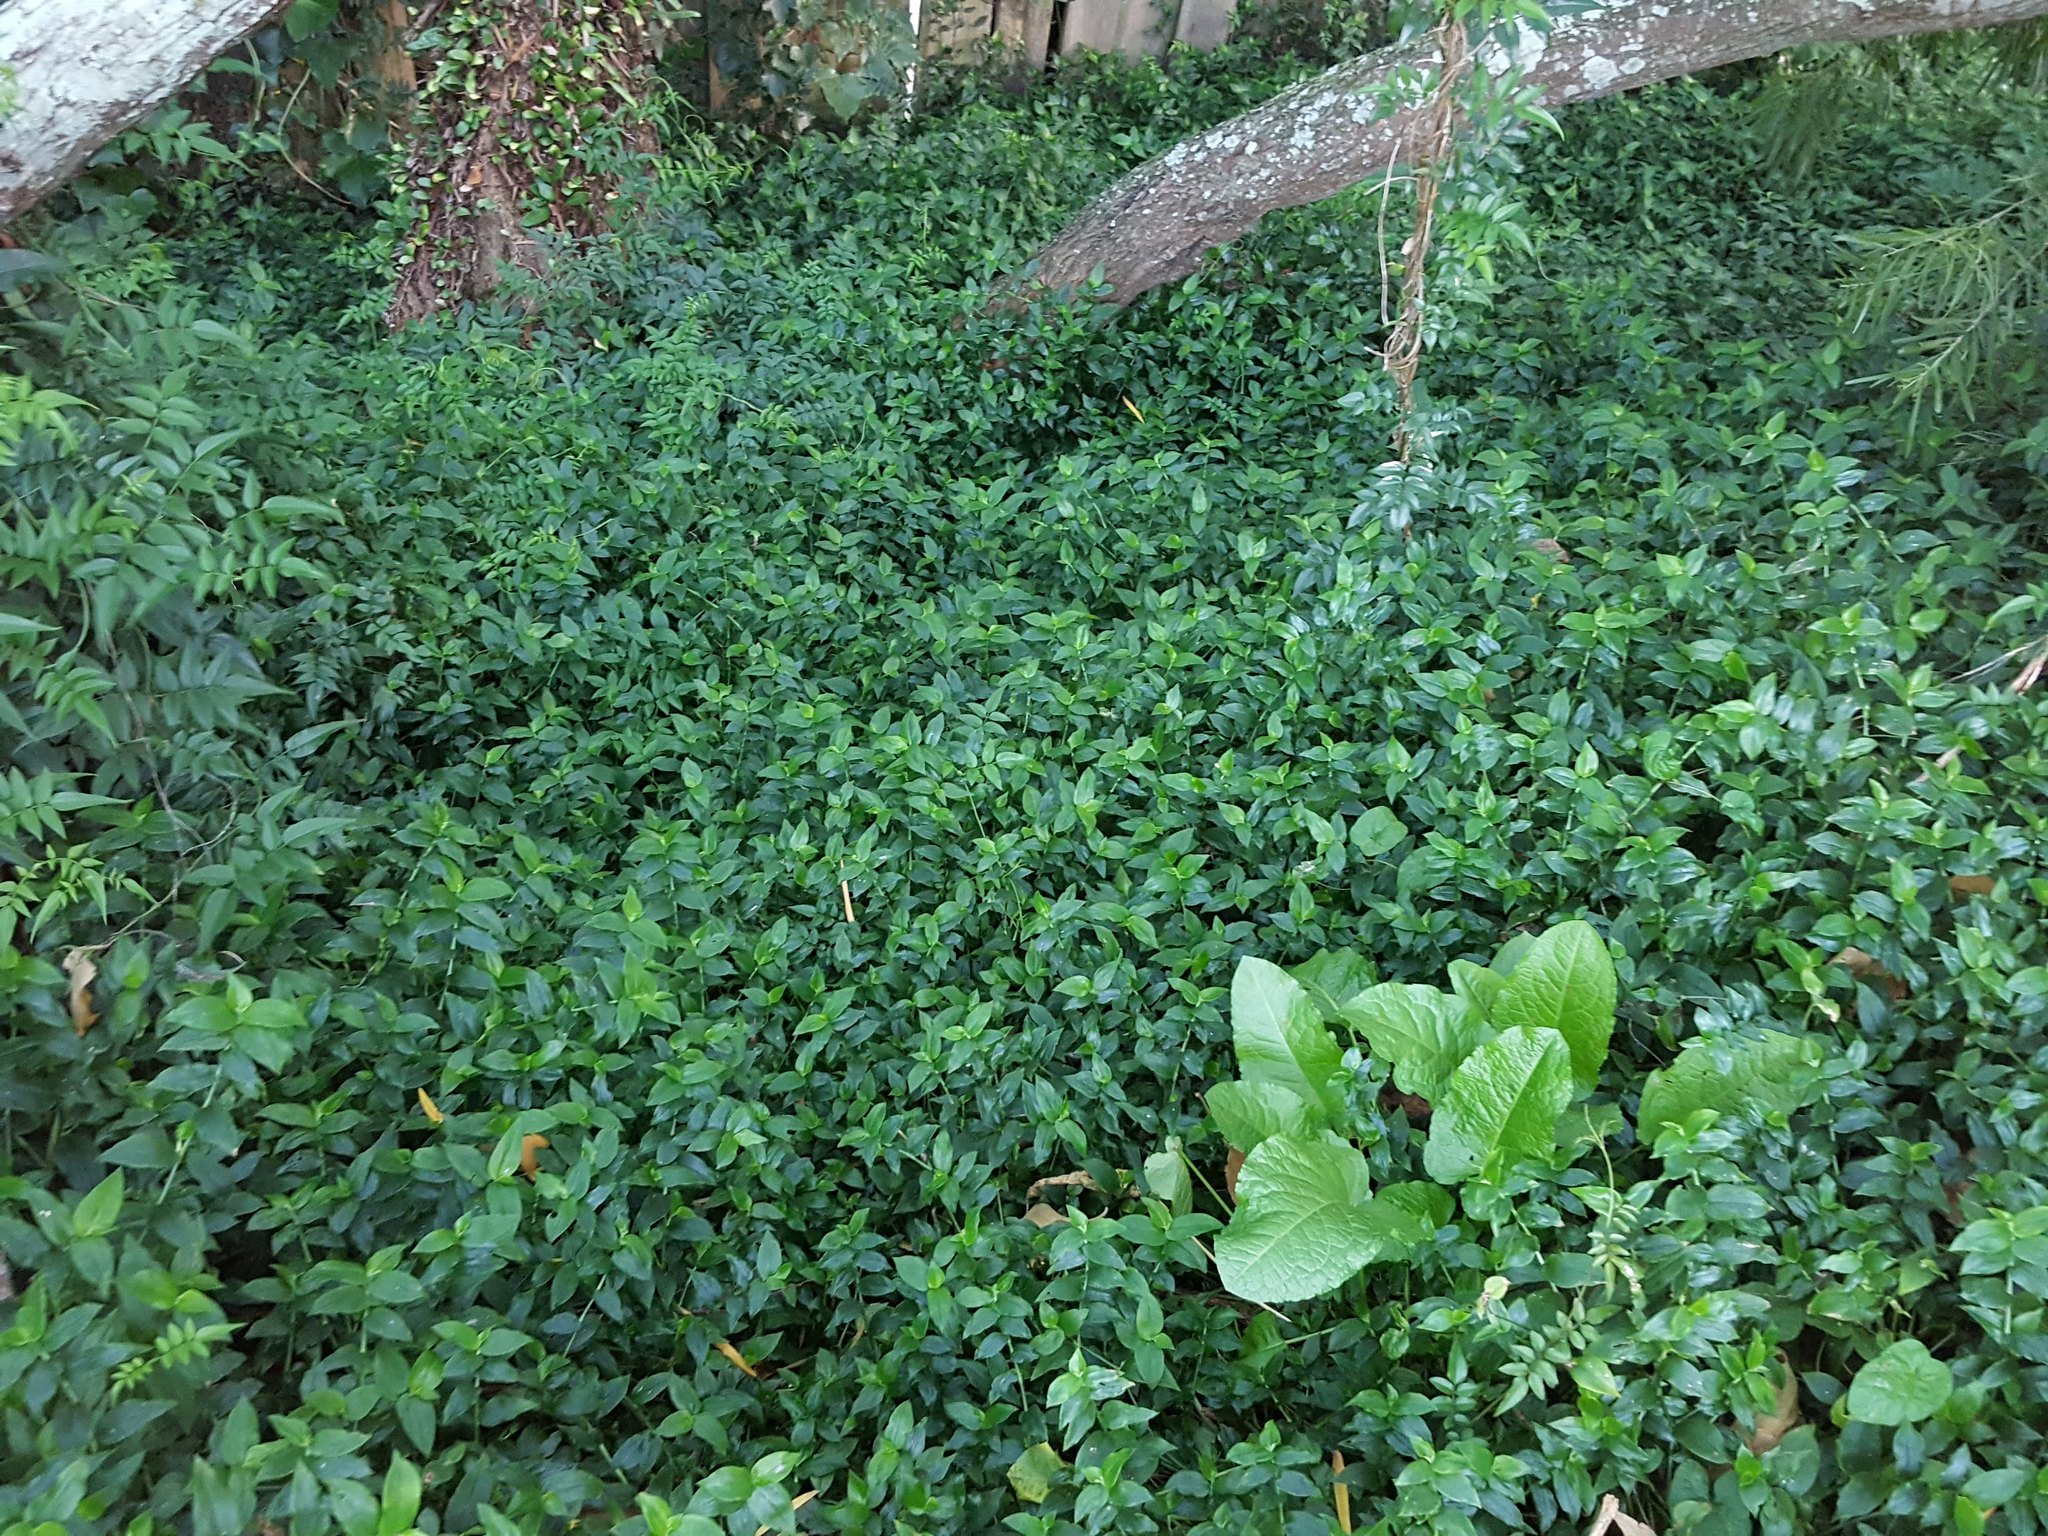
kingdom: Plantae
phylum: Tracheophyta
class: Liliopsida
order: Commelinales
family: Commelinaceae
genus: Tradescantia
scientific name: Tradescantia fluminensis
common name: Wandering-jew
